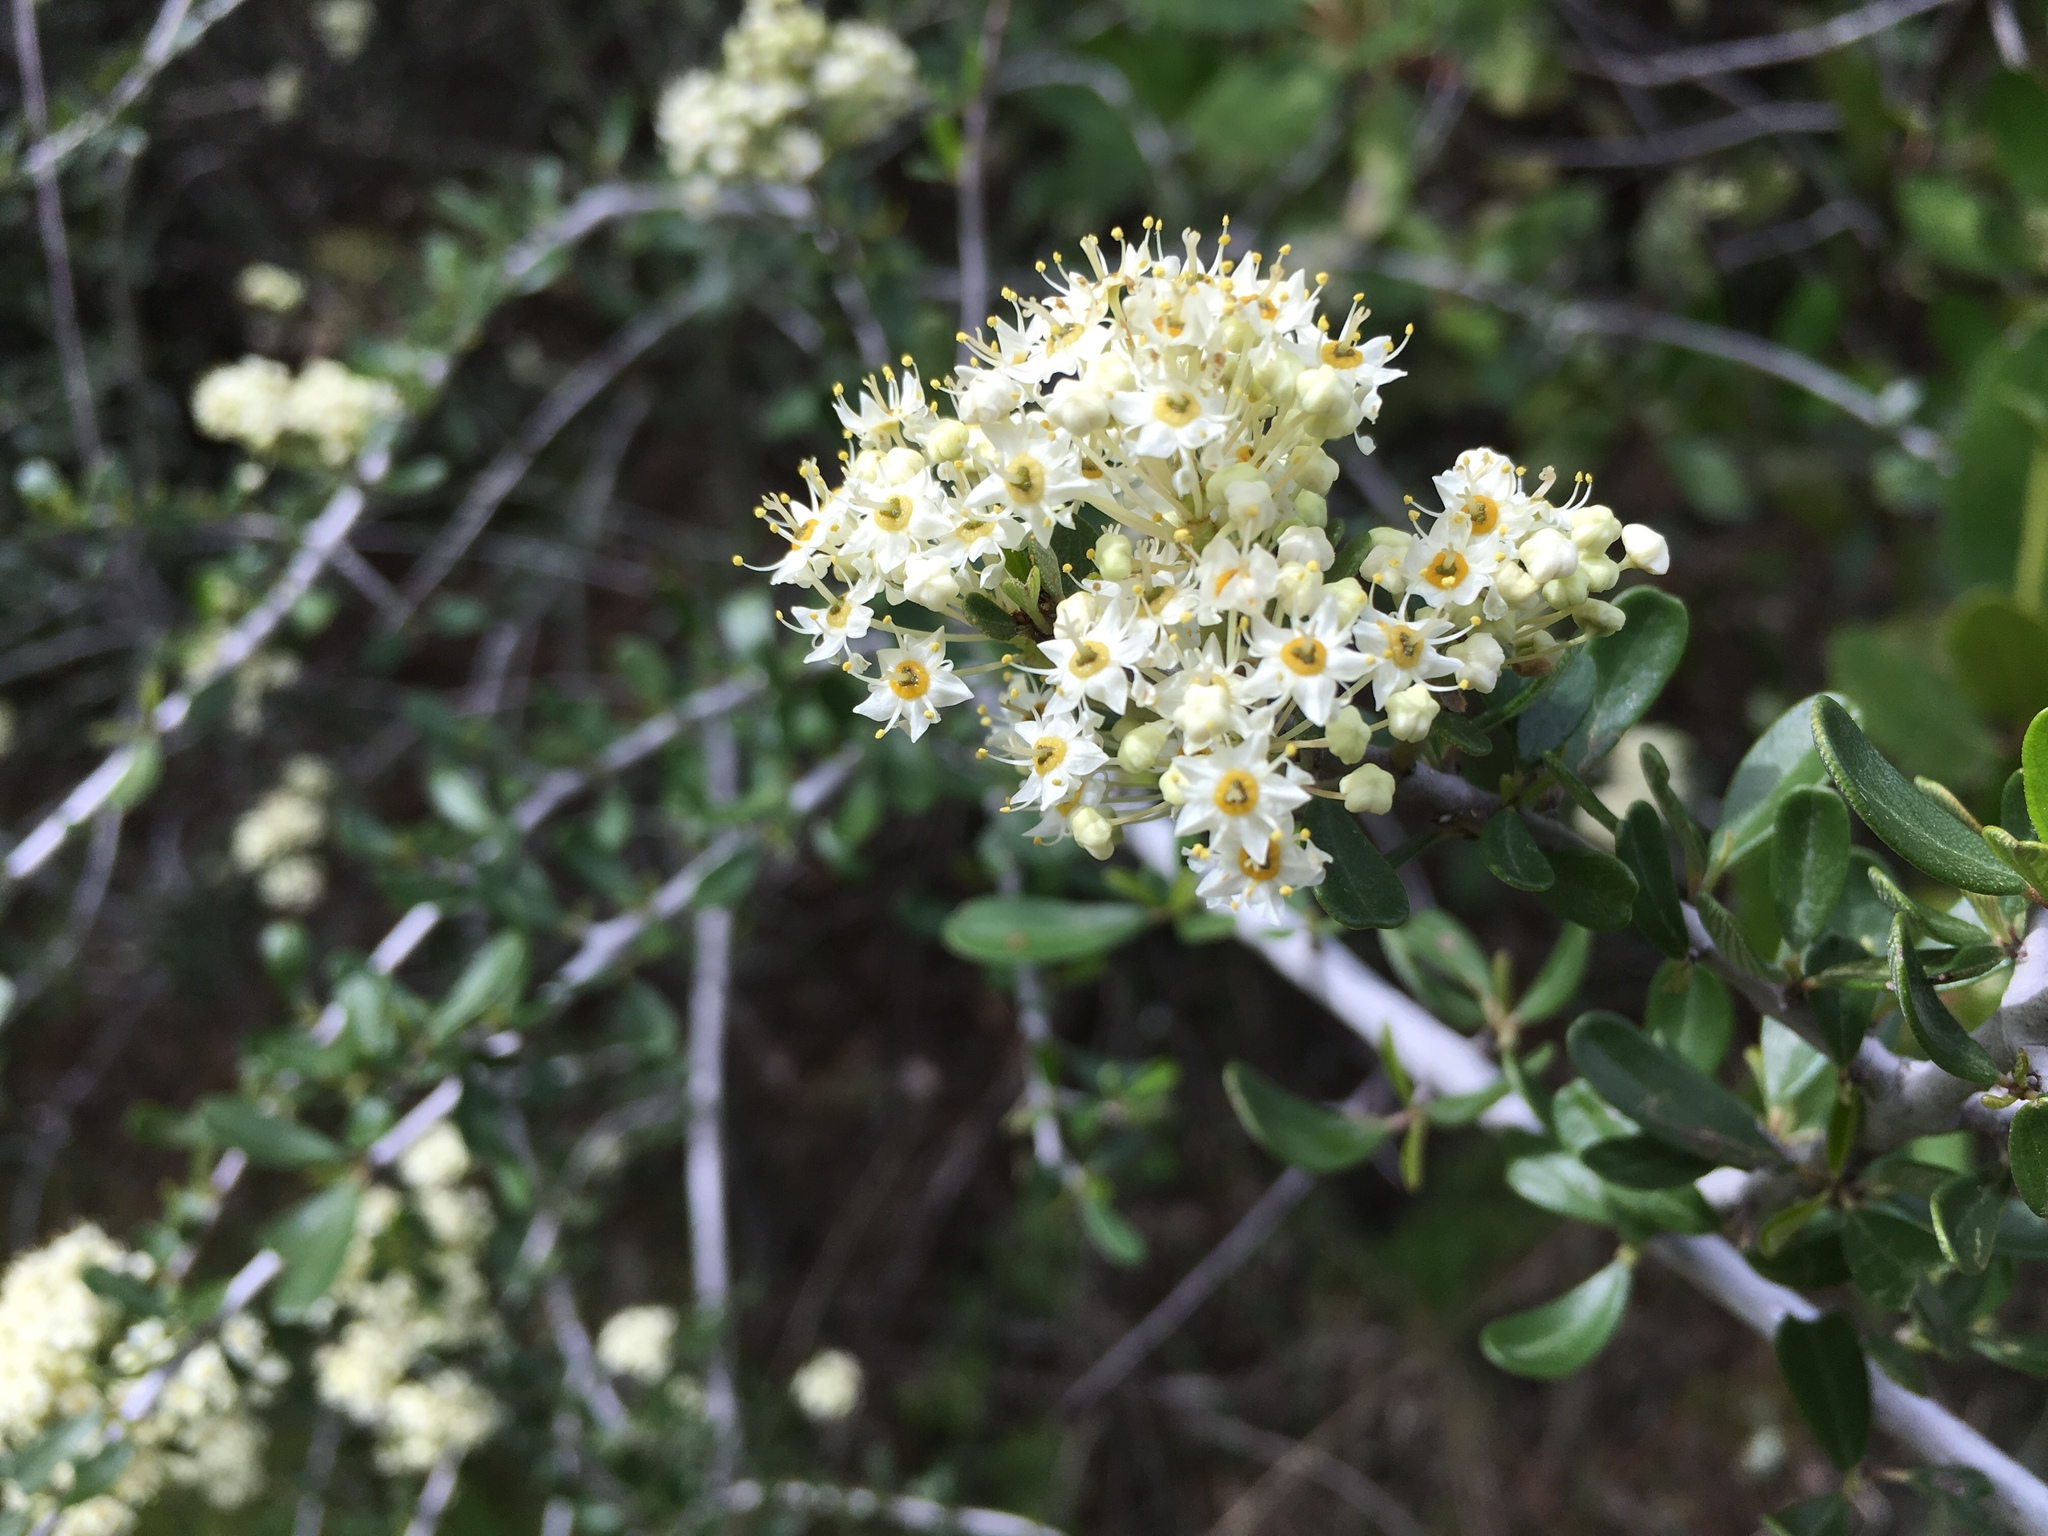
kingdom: Plantae
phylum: Tracheophyta
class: Magnoliopsida
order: Rosales
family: Rhamnaceae
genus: Ceanothus
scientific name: Ceanothus cuneatus
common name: Cuneate ceanothus
